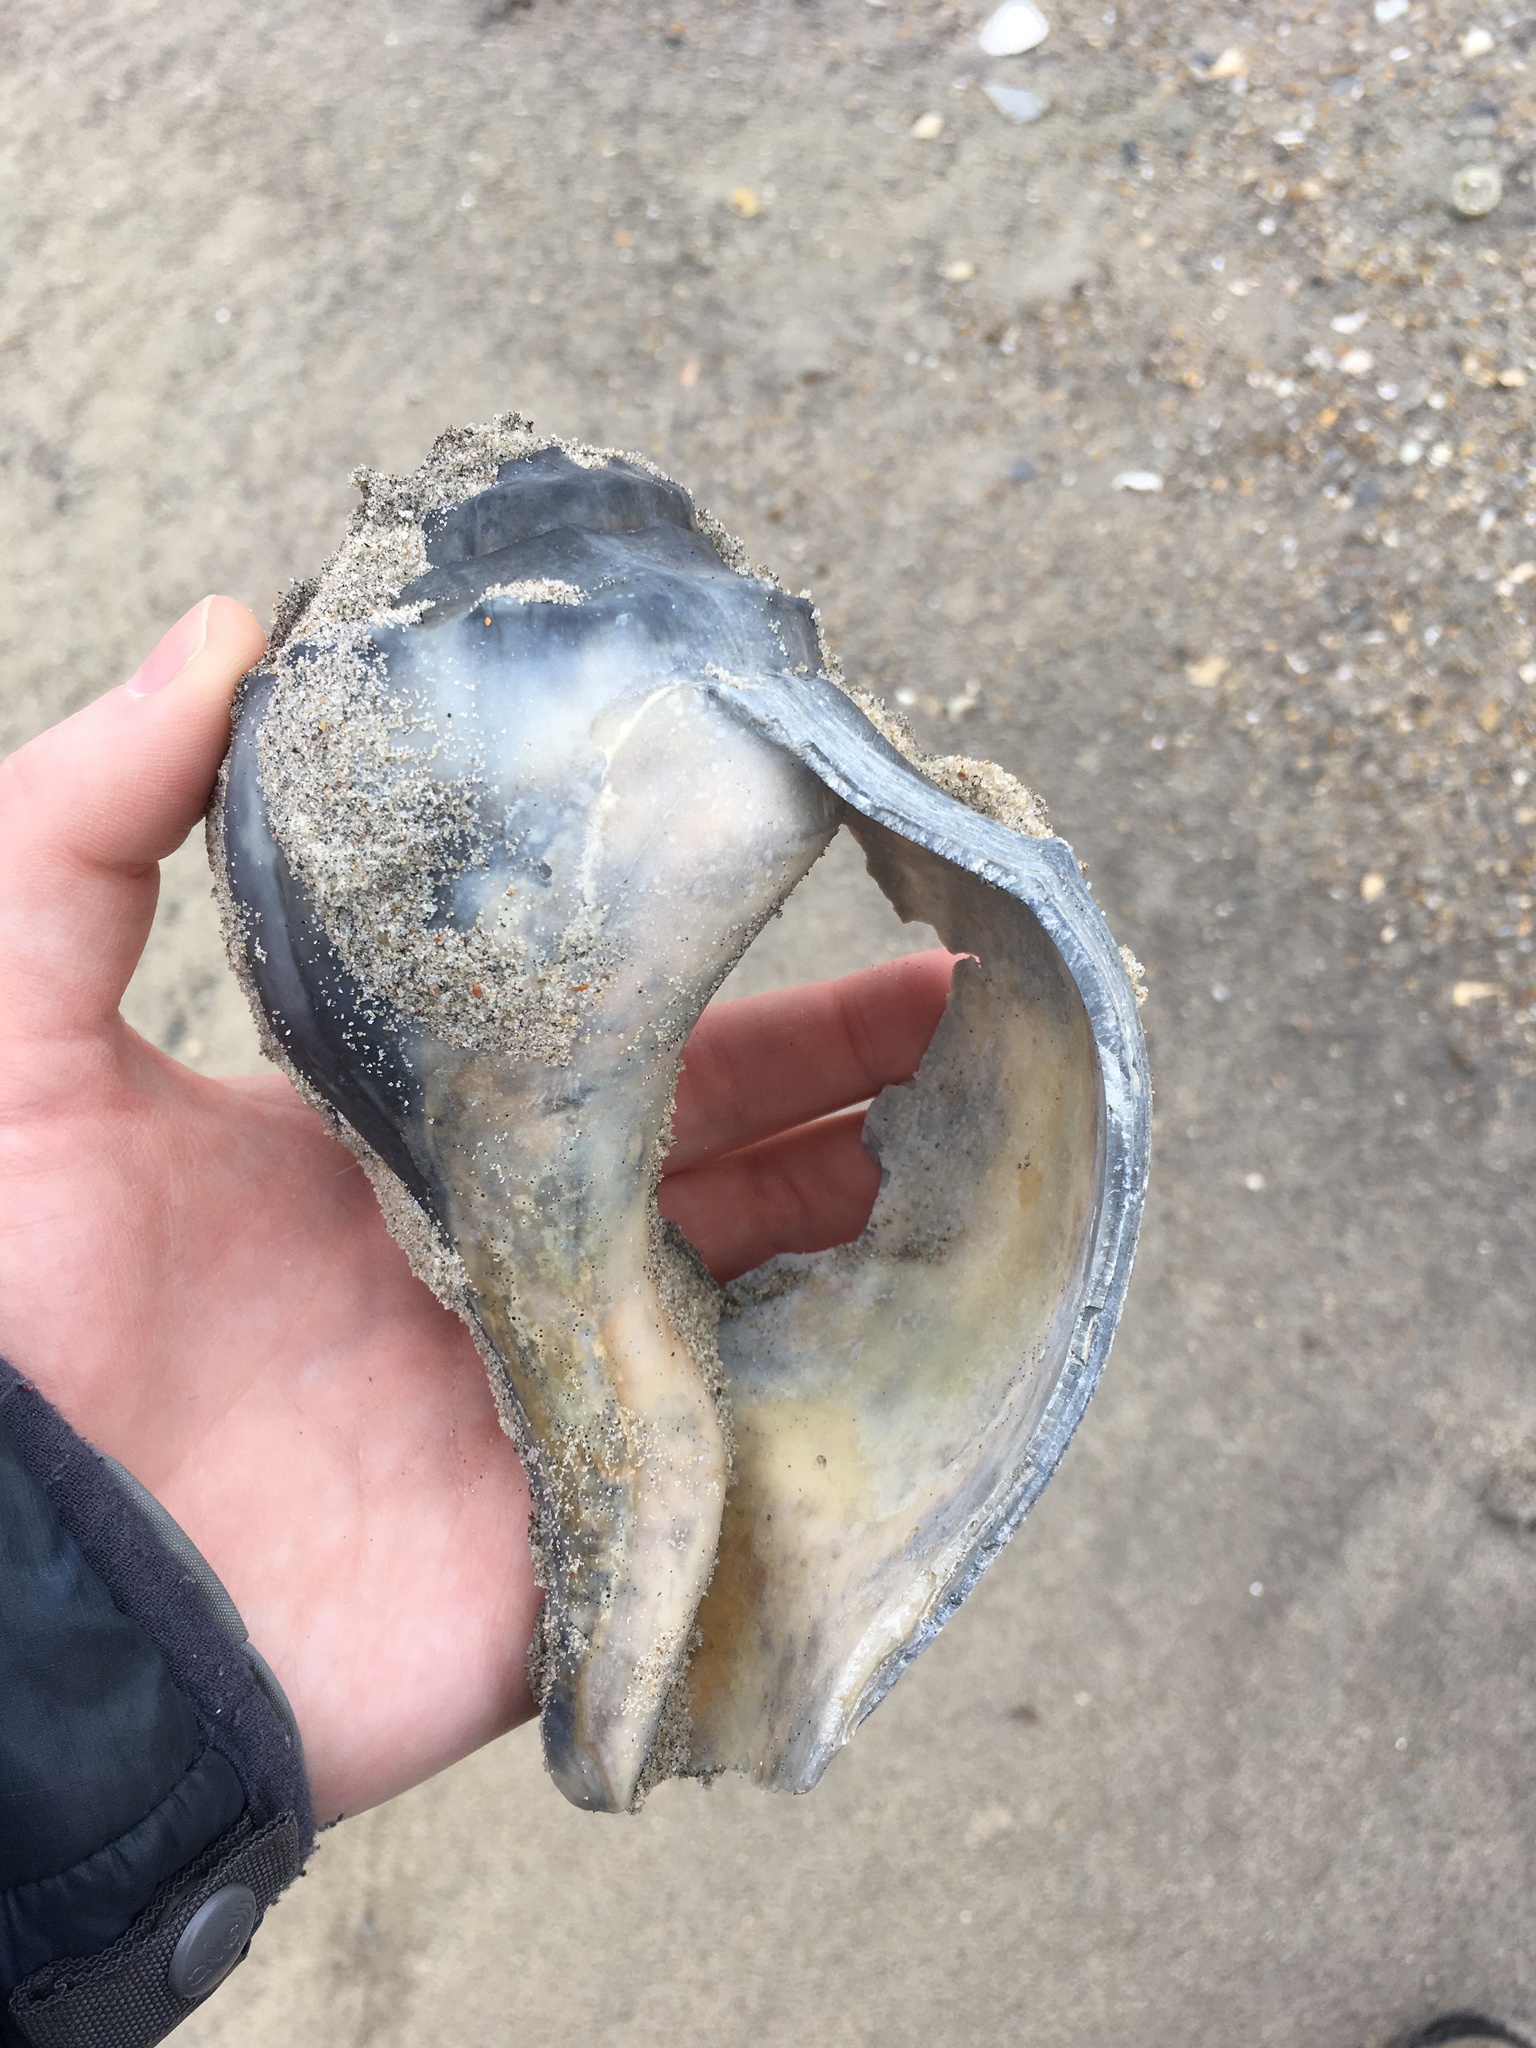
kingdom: Animalia
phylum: Mollusca
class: Gastropoda
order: Neogastropoda
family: Busyconidae
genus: Busycon
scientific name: Busycon carica
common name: Knobbed whelk
